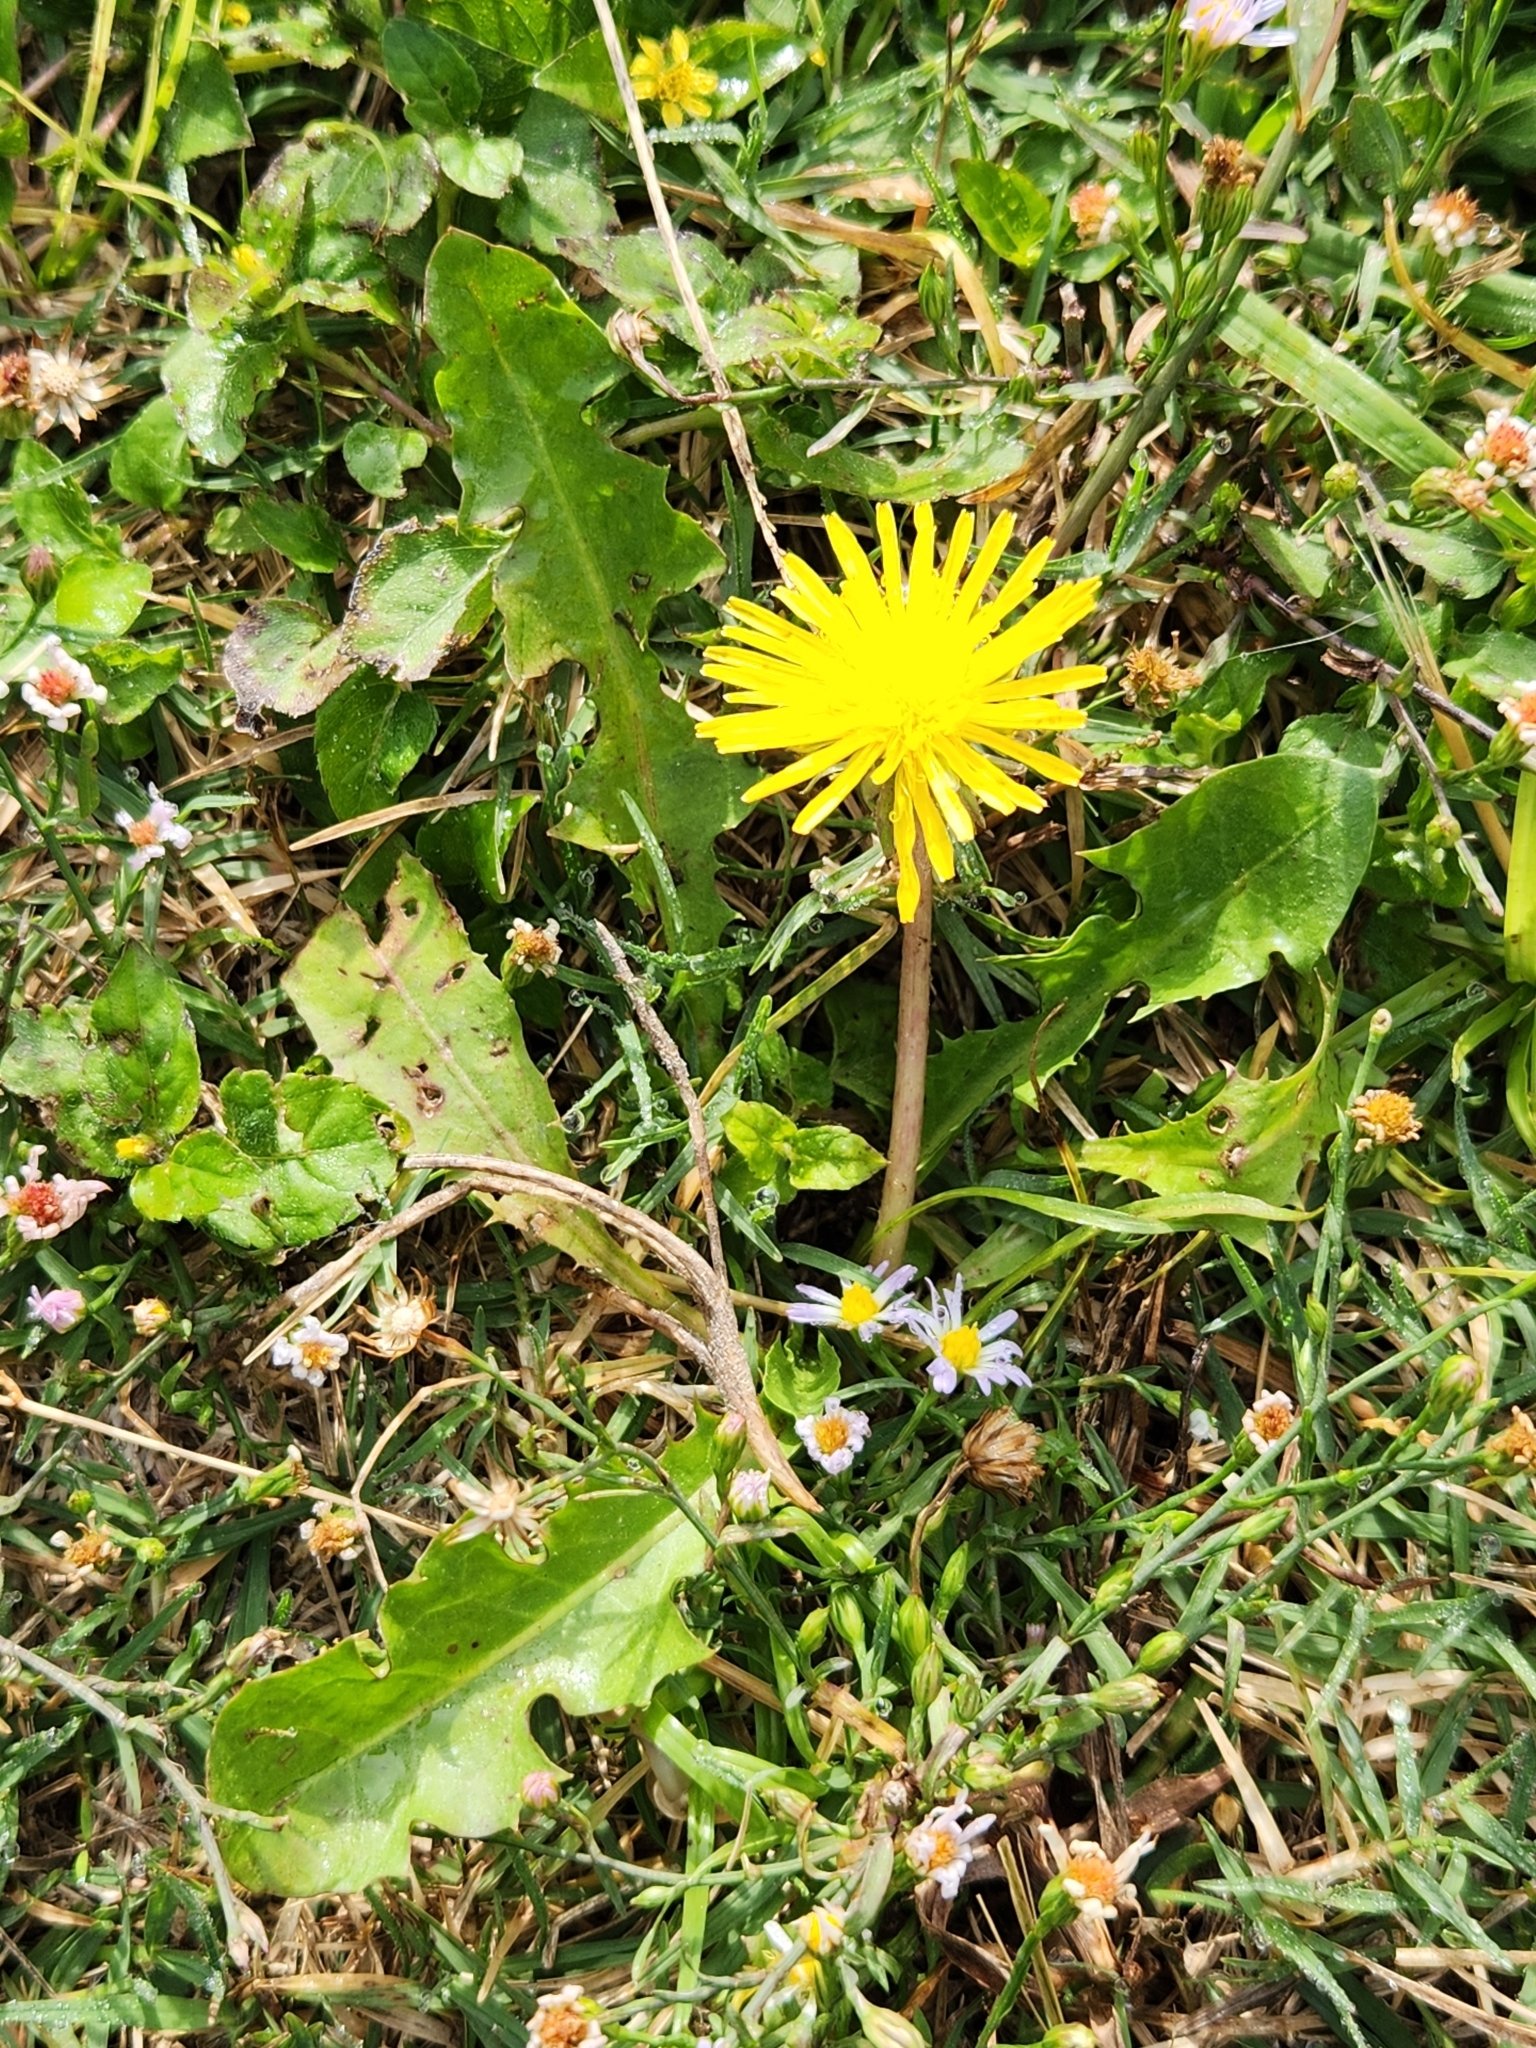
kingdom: Plantae
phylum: Tracheophyta
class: Magnoliopsida
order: Asterales
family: Asteraceae
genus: Taraxacum
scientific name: Taraxacum officinale
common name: Common dandelion
